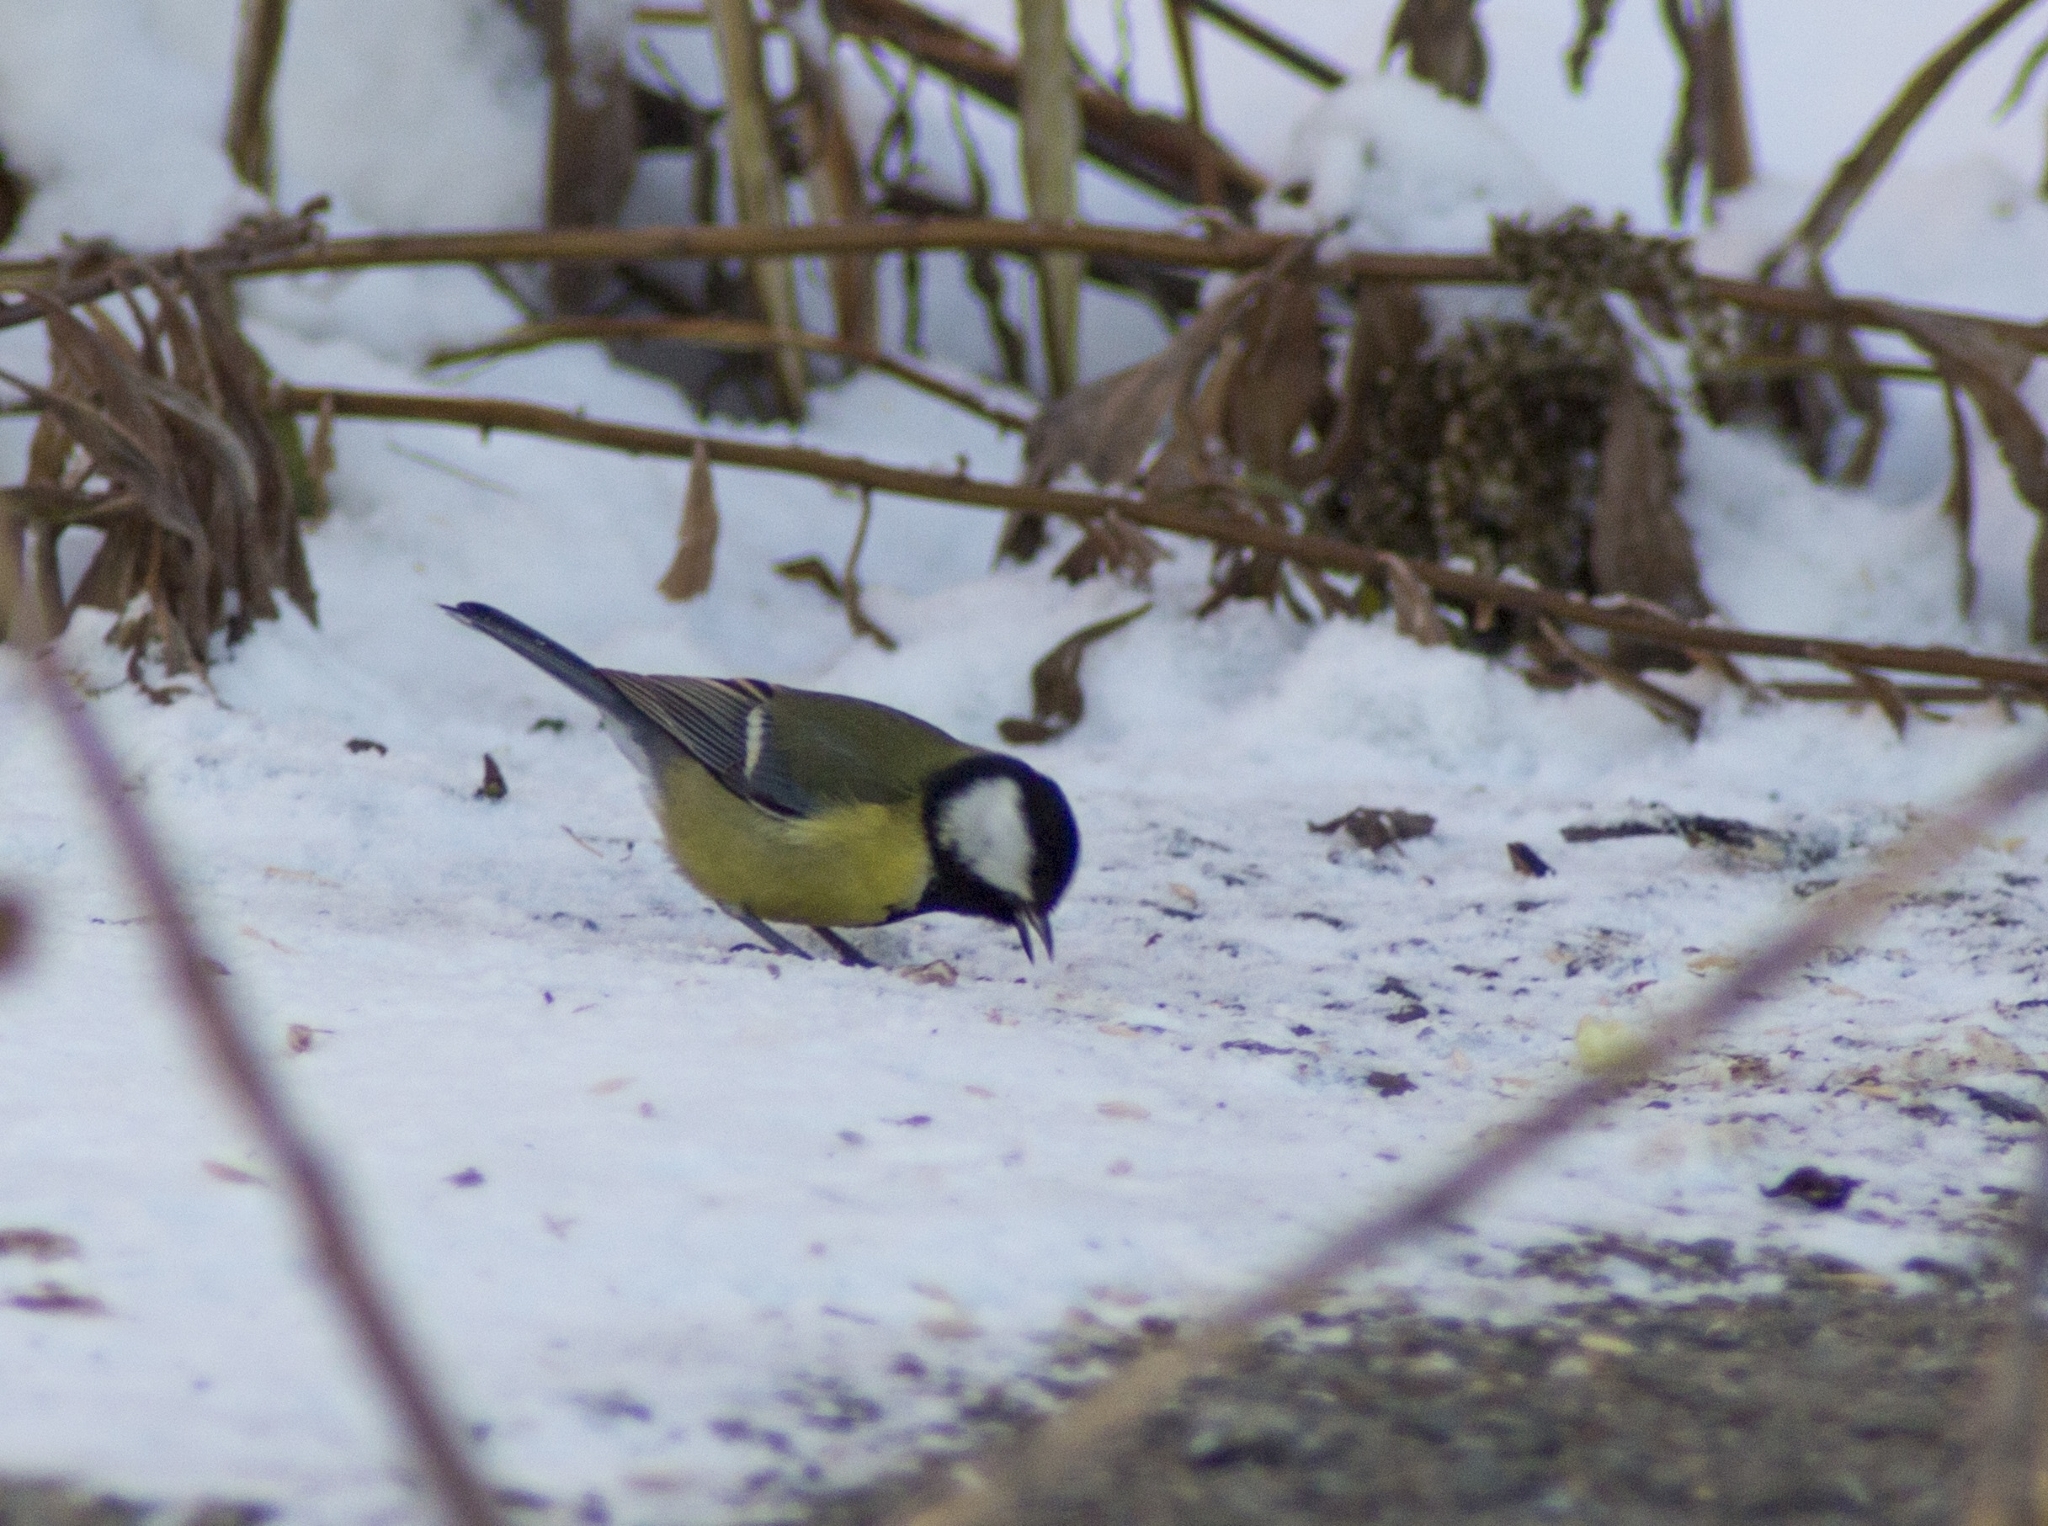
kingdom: Animalia
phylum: Chordata
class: Aves
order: Passeriformes
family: Paridae
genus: Parus
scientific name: Parus major
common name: Great tit
